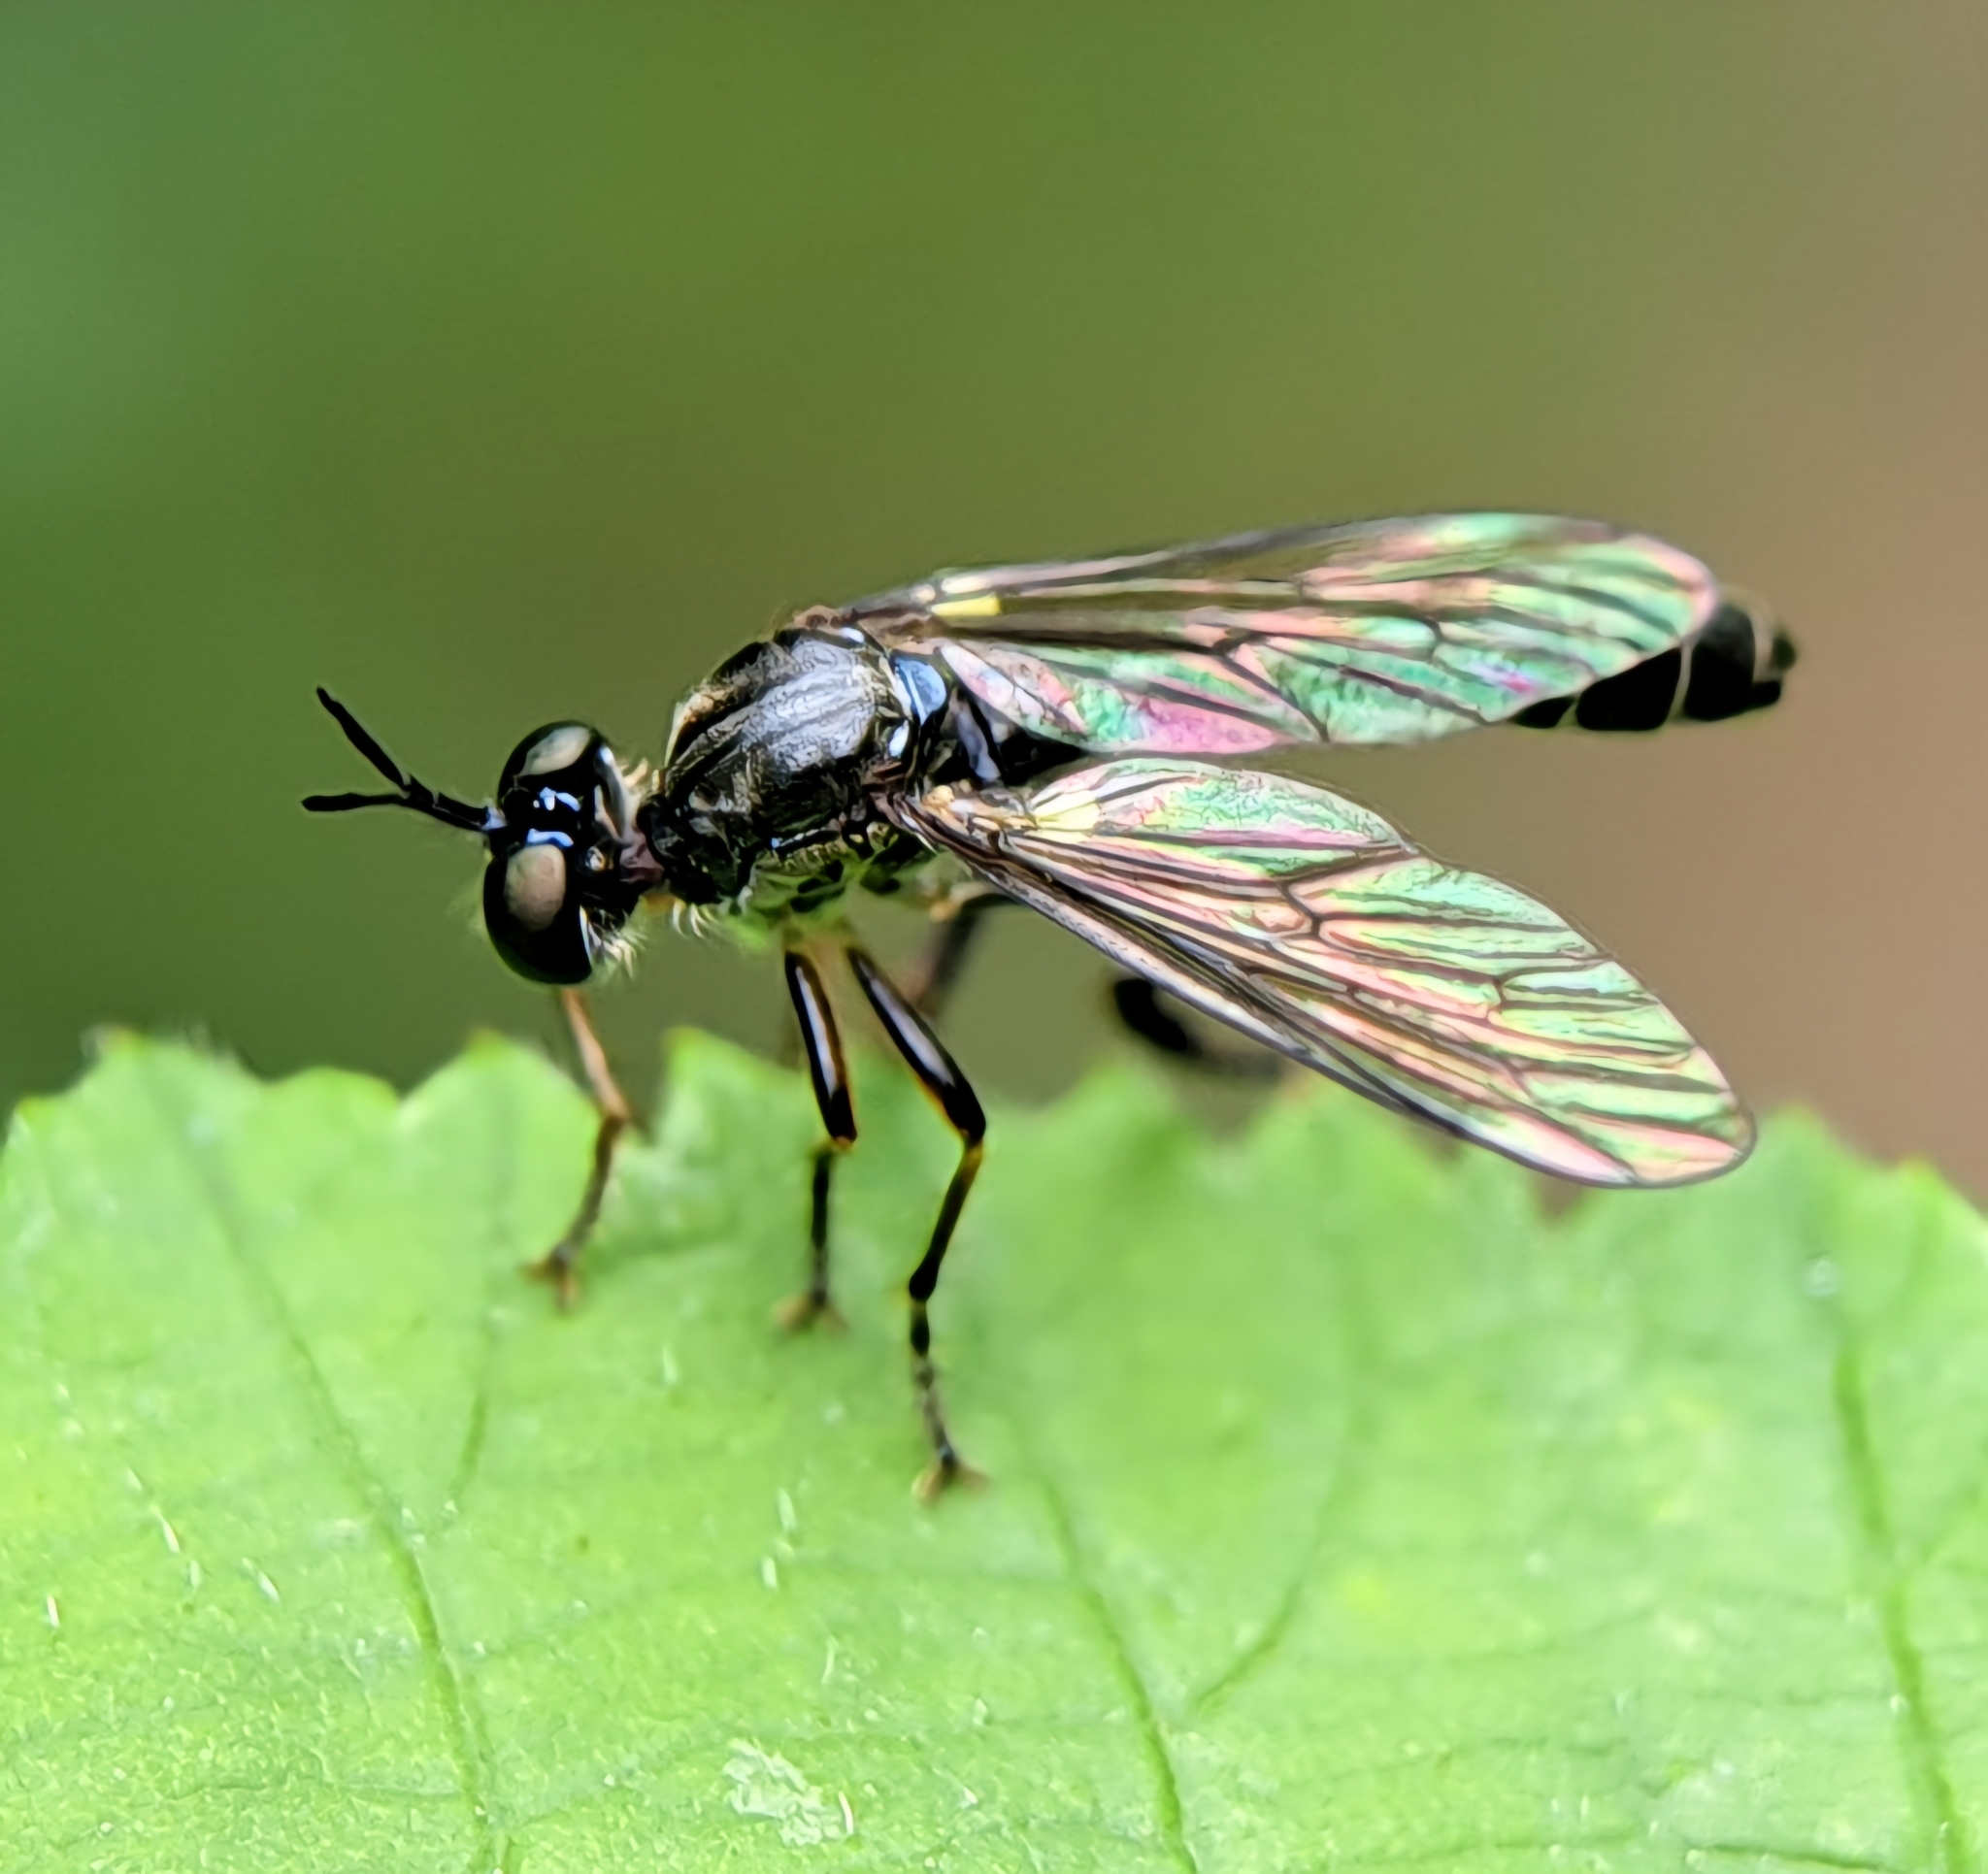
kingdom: Animalia
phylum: Arthropoda
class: Insecta
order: Diptera
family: Asilidae
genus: Dioctria
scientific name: Dioctria hyalipennis
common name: Stripe-legged robberfly
